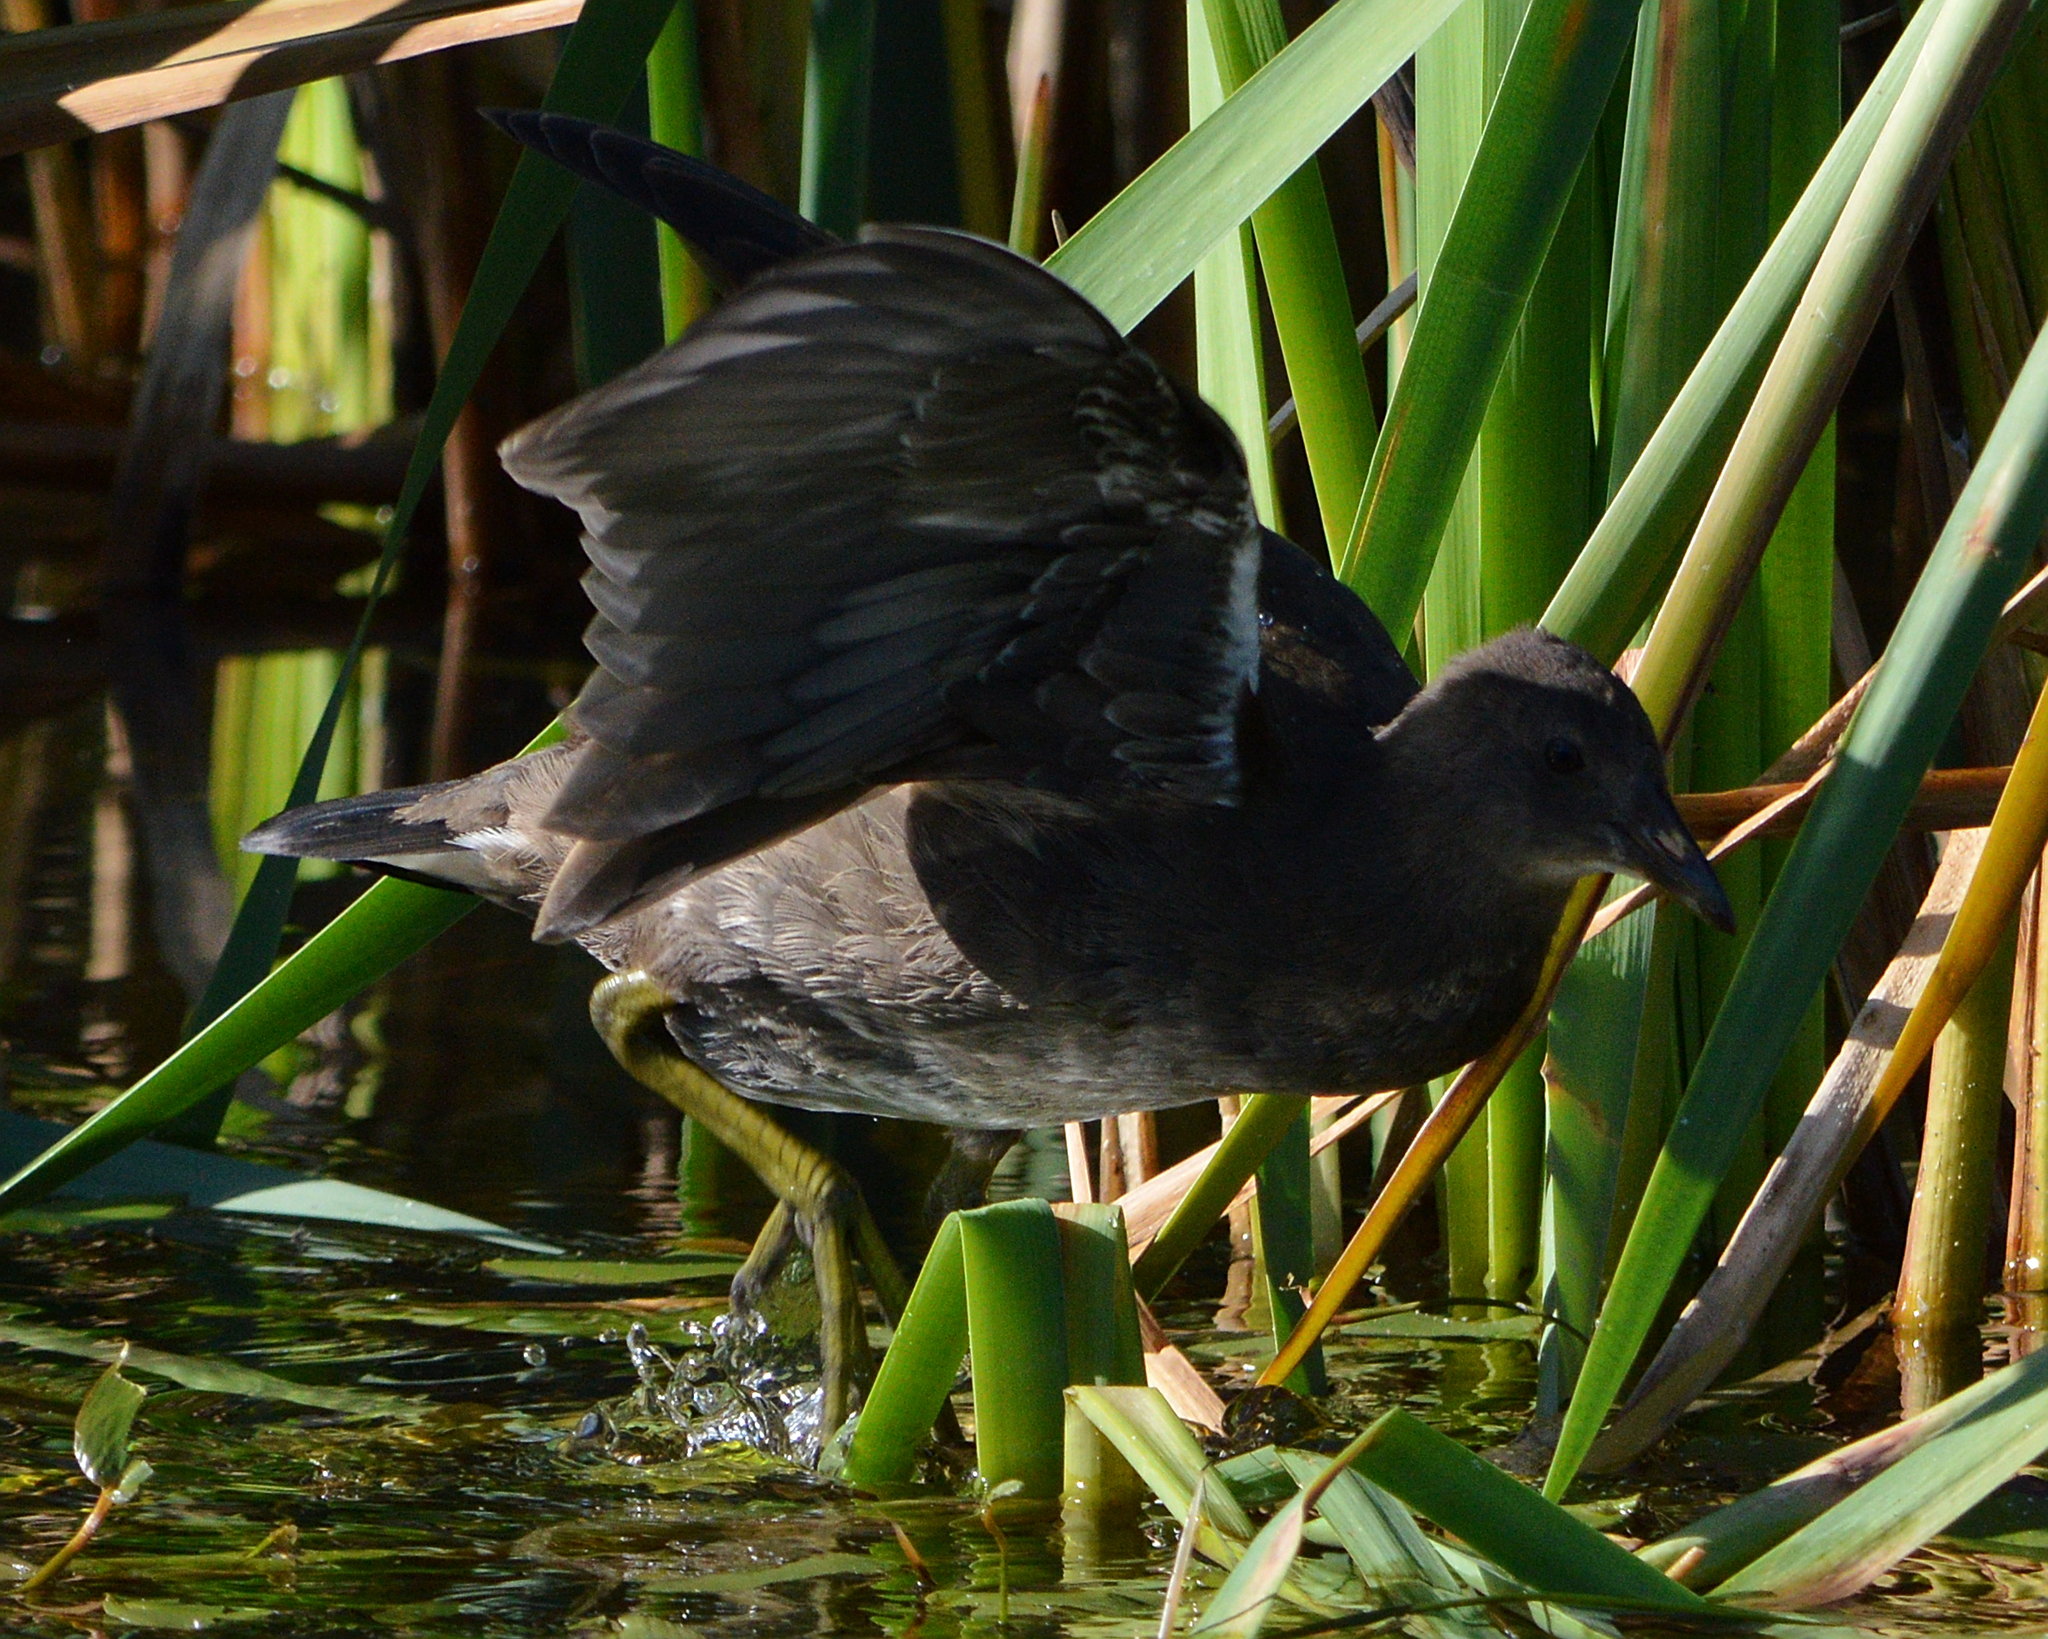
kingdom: Animalia
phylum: Chordata
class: Aves
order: Gruiformes
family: Rallidae
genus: Gallinula
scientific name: Gallinula chloropus
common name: Common moorhen
